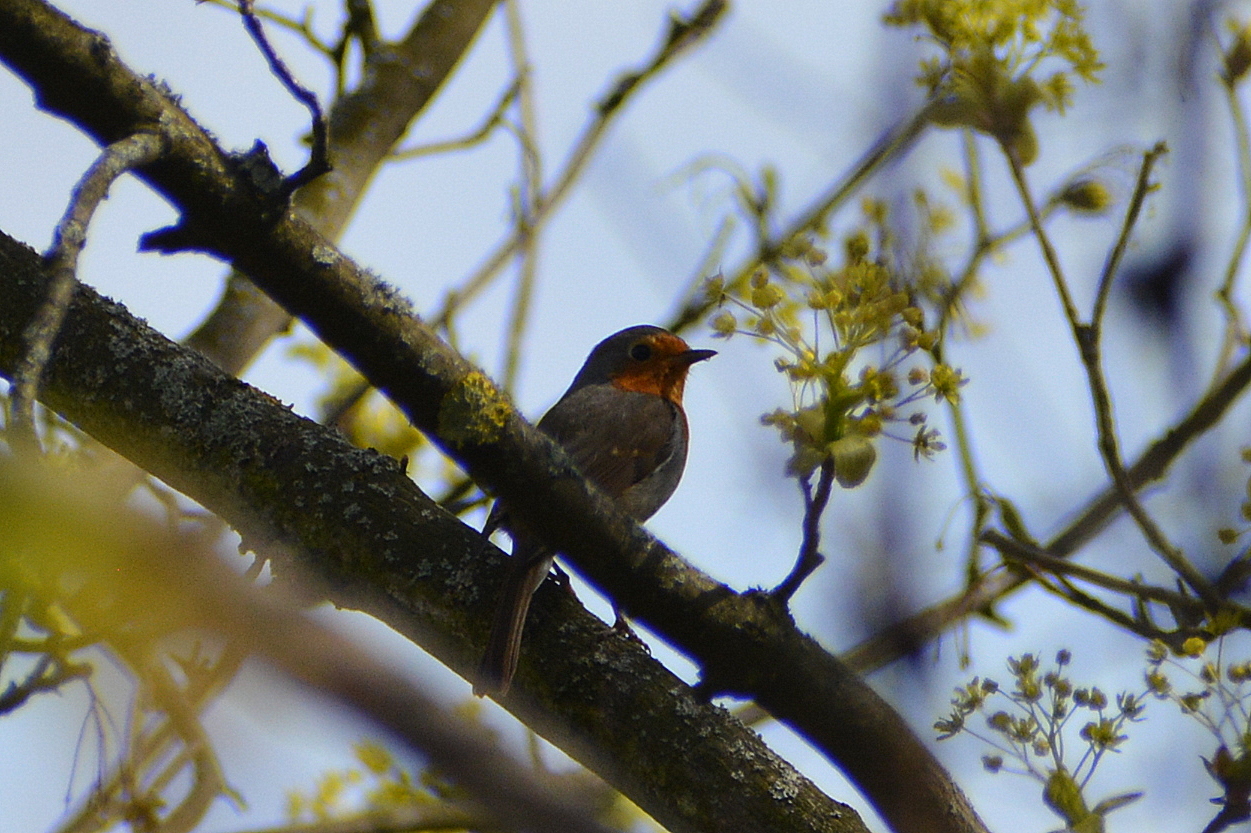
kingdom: Animalia
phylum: Chordata
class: Aves
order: Passeriformes
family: Muscicapidae
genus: Erithacus
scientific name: Erithacus rubecula
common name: European robin
